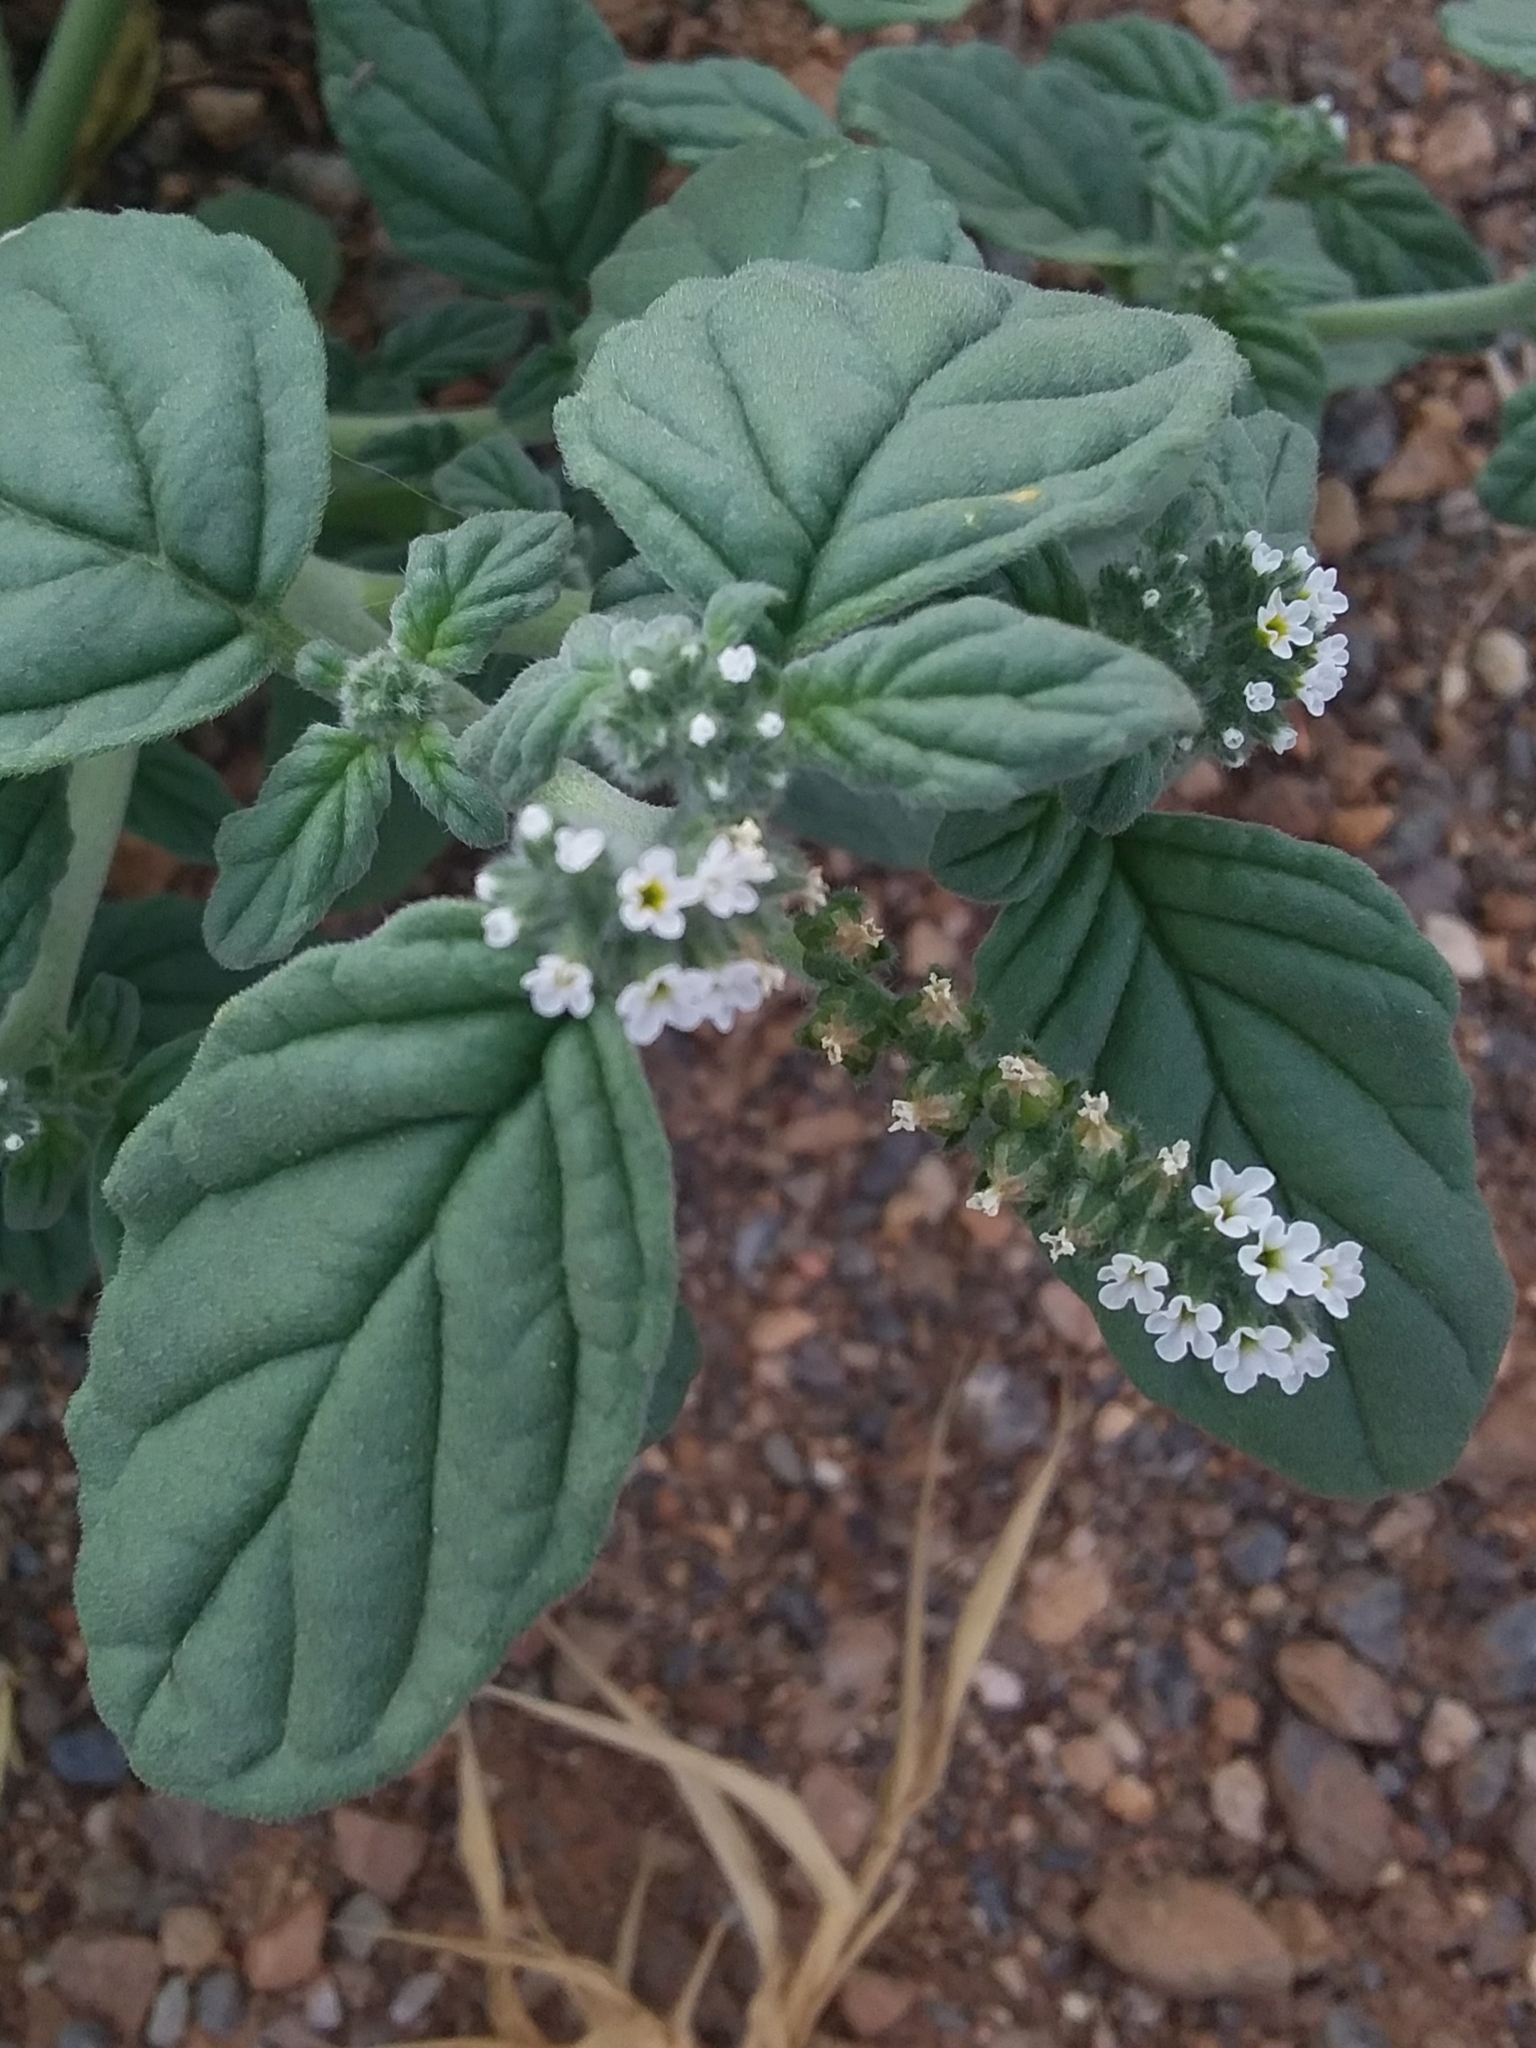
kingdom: Plantae
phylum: Tracheophyta
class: Magnoliopsida
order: Boraginales
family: Heliotropiaceae
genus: Heliotropium
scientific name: Heliotropium europaeum
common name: European heliotrope
